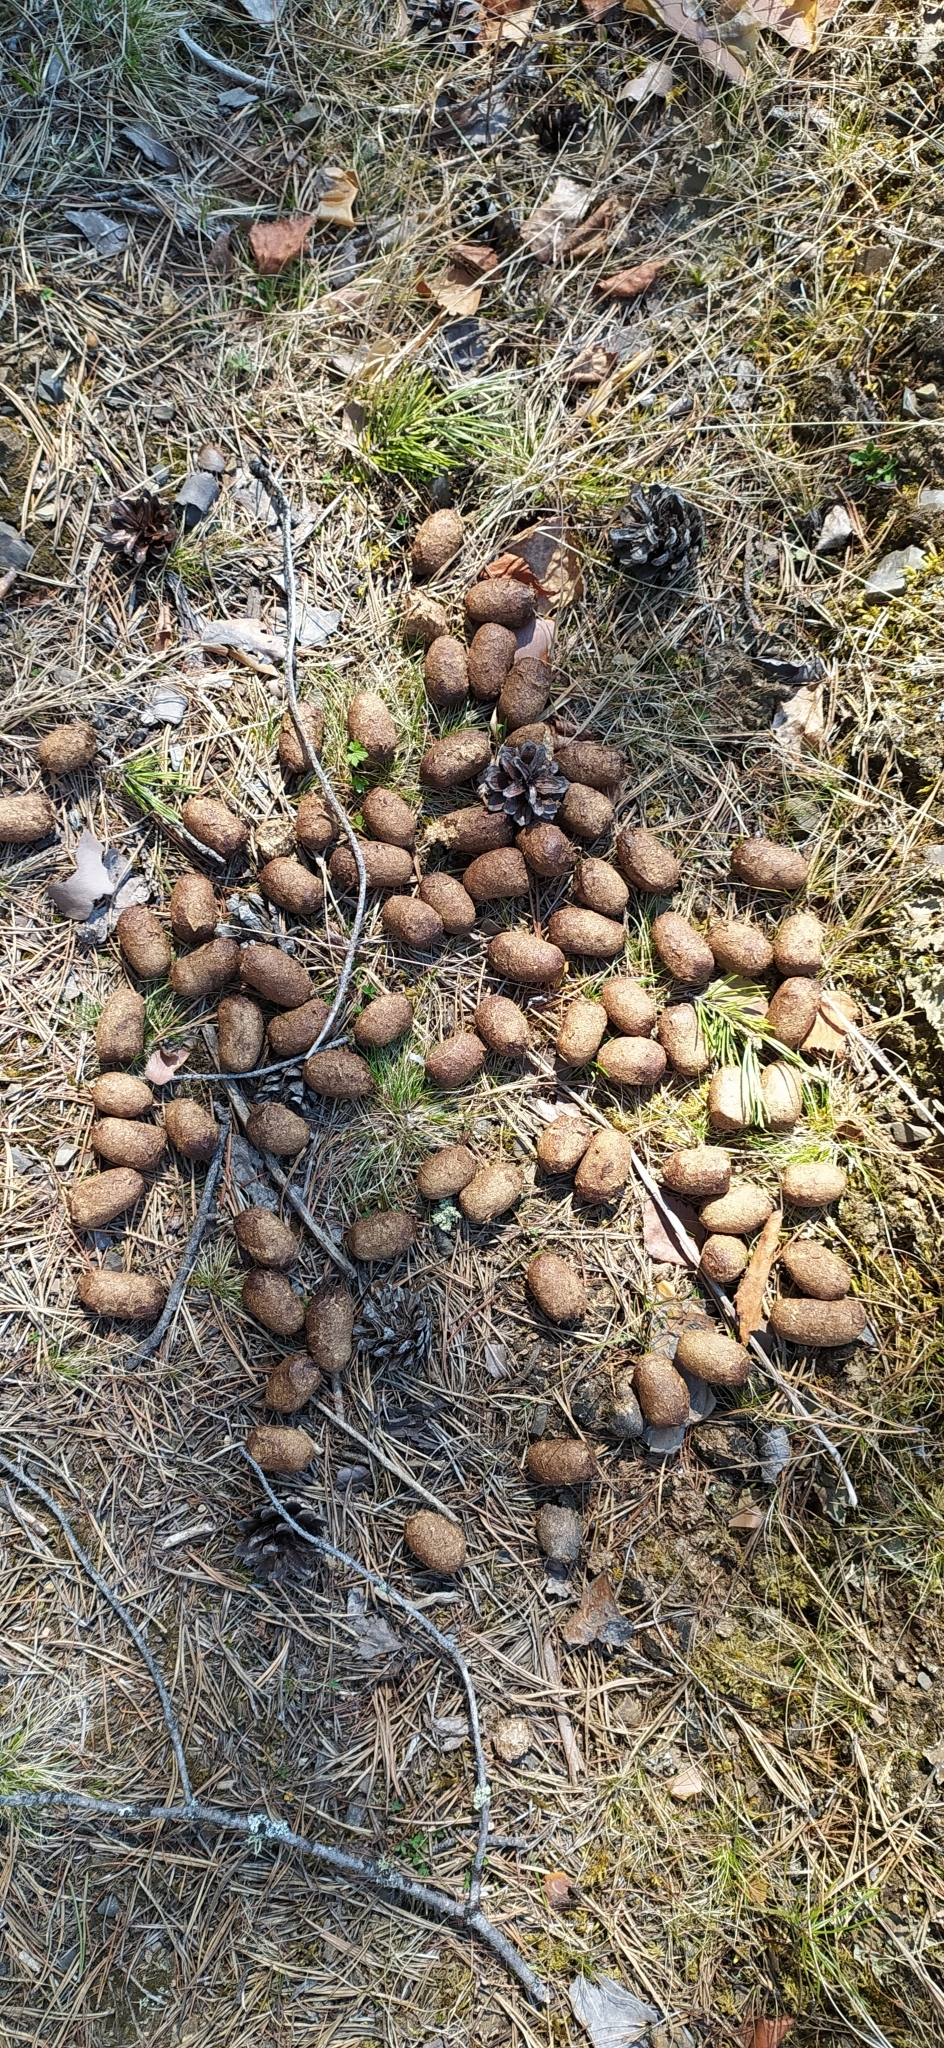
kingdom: Animalia
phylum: Chordata
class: Mammalia
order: Artiodactyla
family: Cervidae
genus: Alces
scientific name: Alces alces
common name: Moose
